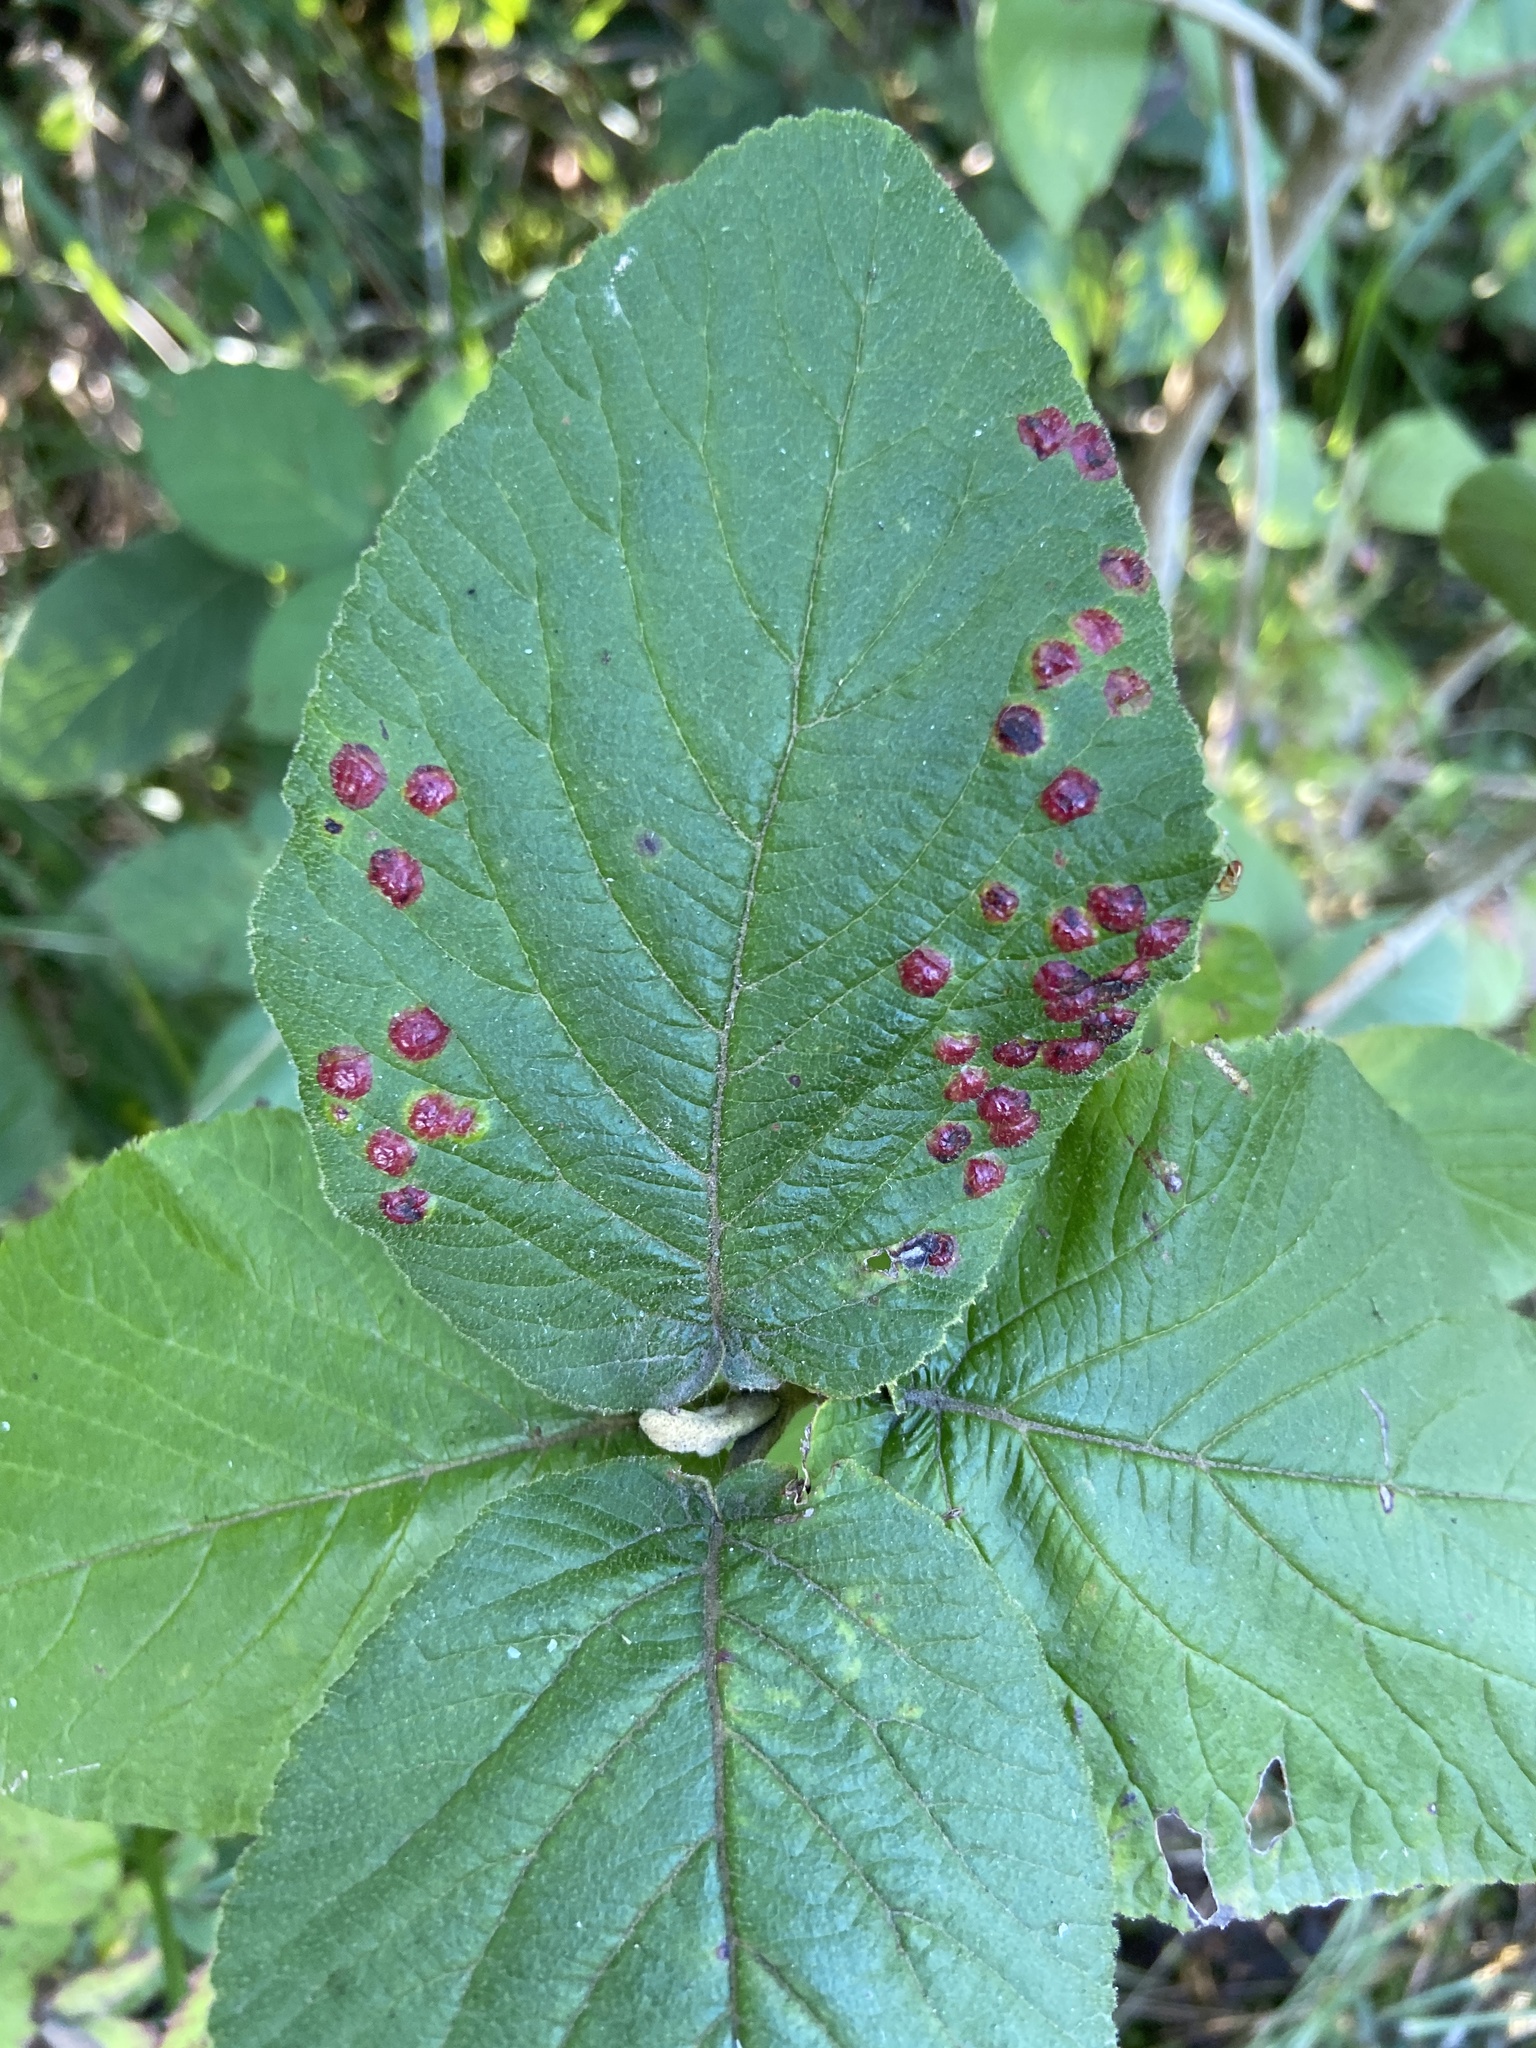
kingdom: Animalia
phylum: Arthropoda
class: Insecta
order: Diptera
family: Cecidomyiidae
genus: Sackenomyia
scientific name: Sackenomyia reaumurii
